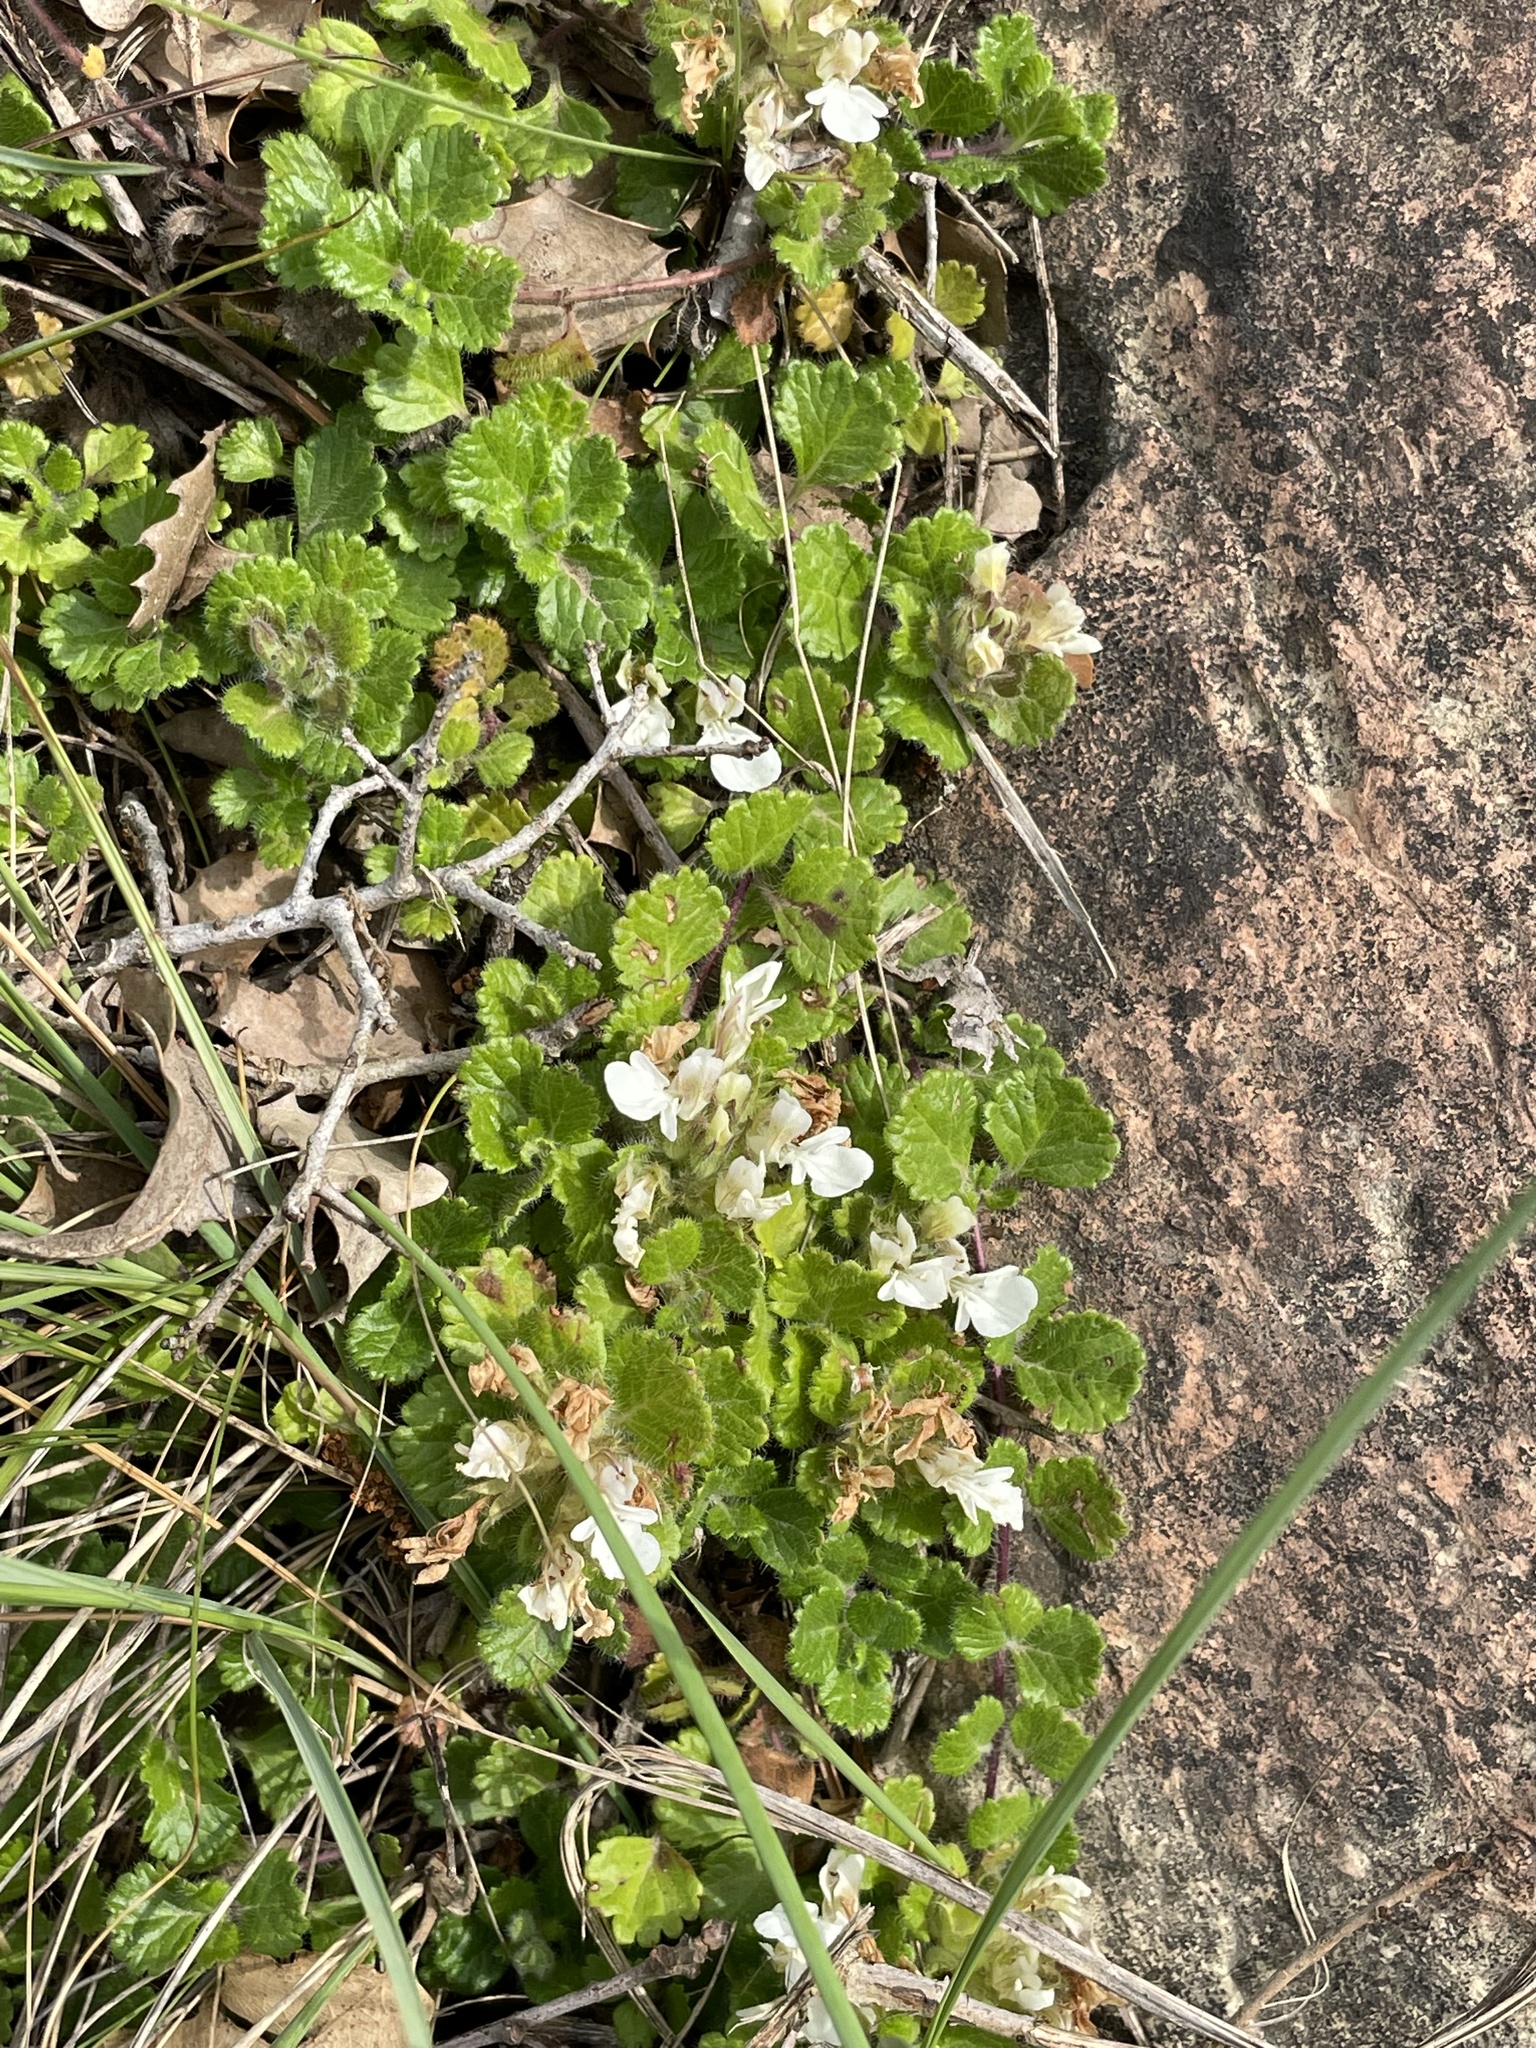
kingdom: Plantae
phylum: Tracheophyta
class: Magnoliopsida
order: Lamiales
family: Lamiaceae
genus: Teucrium
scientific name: Teucrium pyrenaicum
